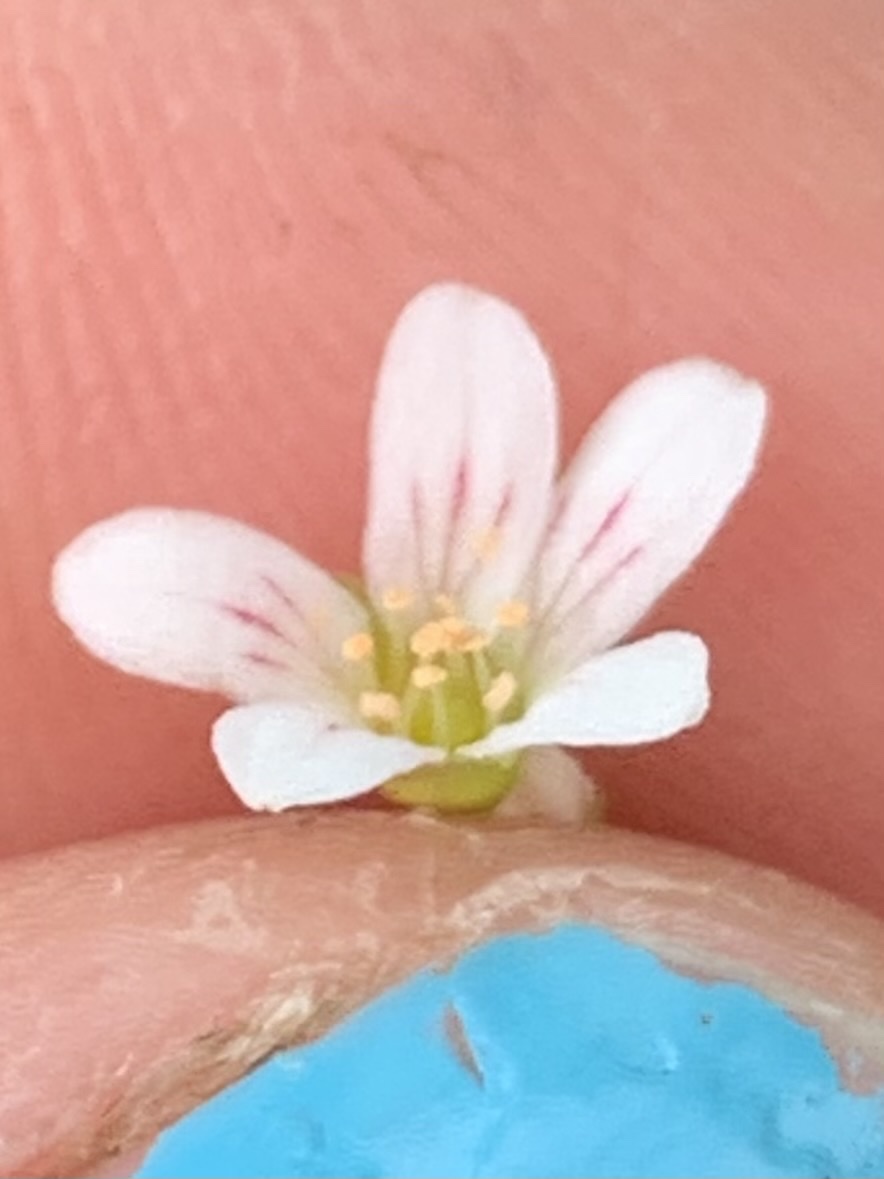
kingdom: Plantae
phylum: Tracheophyta
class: Magnoliopsida
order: Saxifragales
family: Saxifragaceae
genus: Cascadia
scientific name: Cascadia nuttallii
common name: Nuttall's saxifrage
